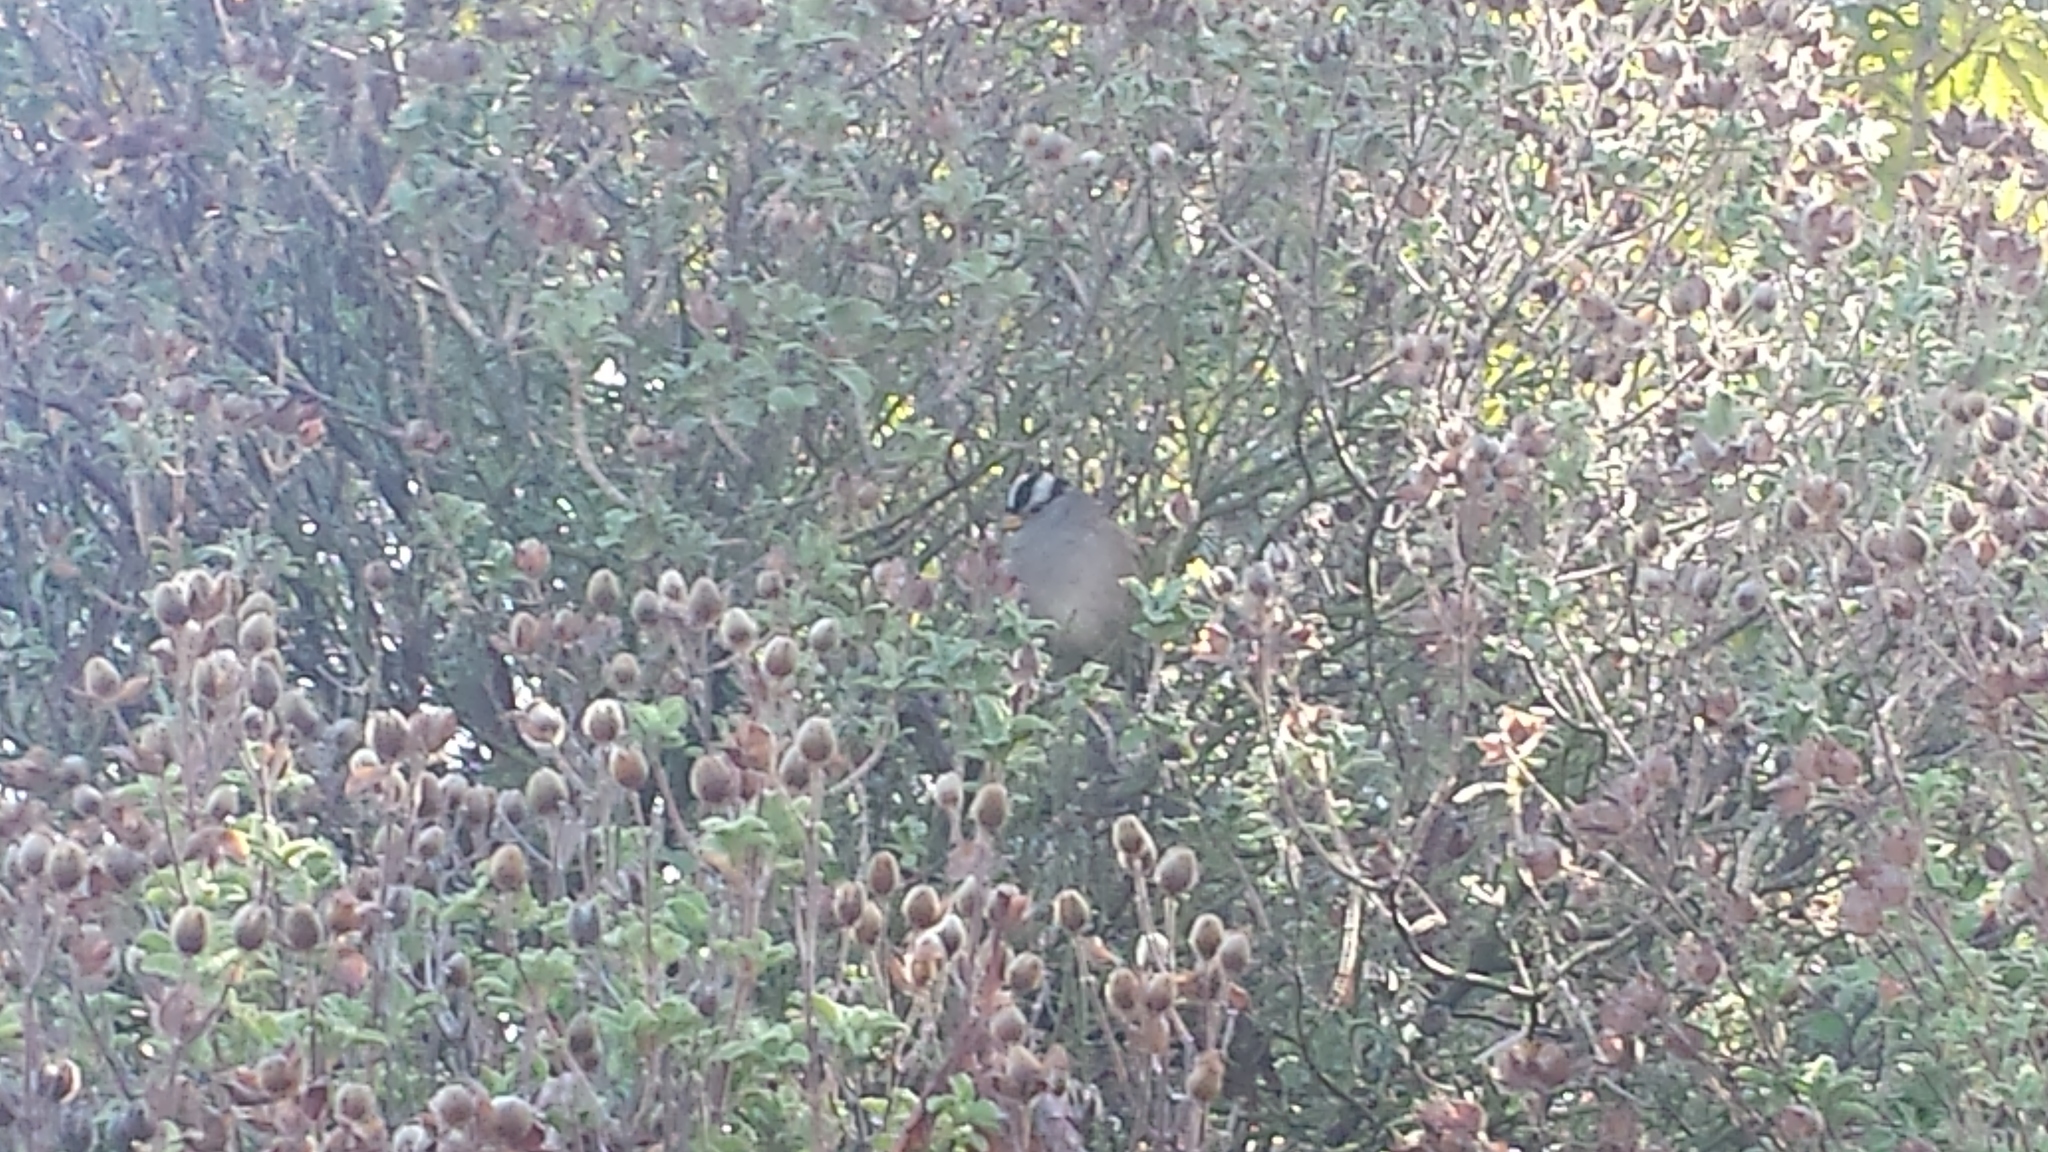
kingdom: Animalia
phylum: Chordata
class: Aves
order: Passeriformes
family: Passerellidae
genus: Zonotrichia
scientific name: Zonotrichia leucophrys
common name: White-crowned sparrow
